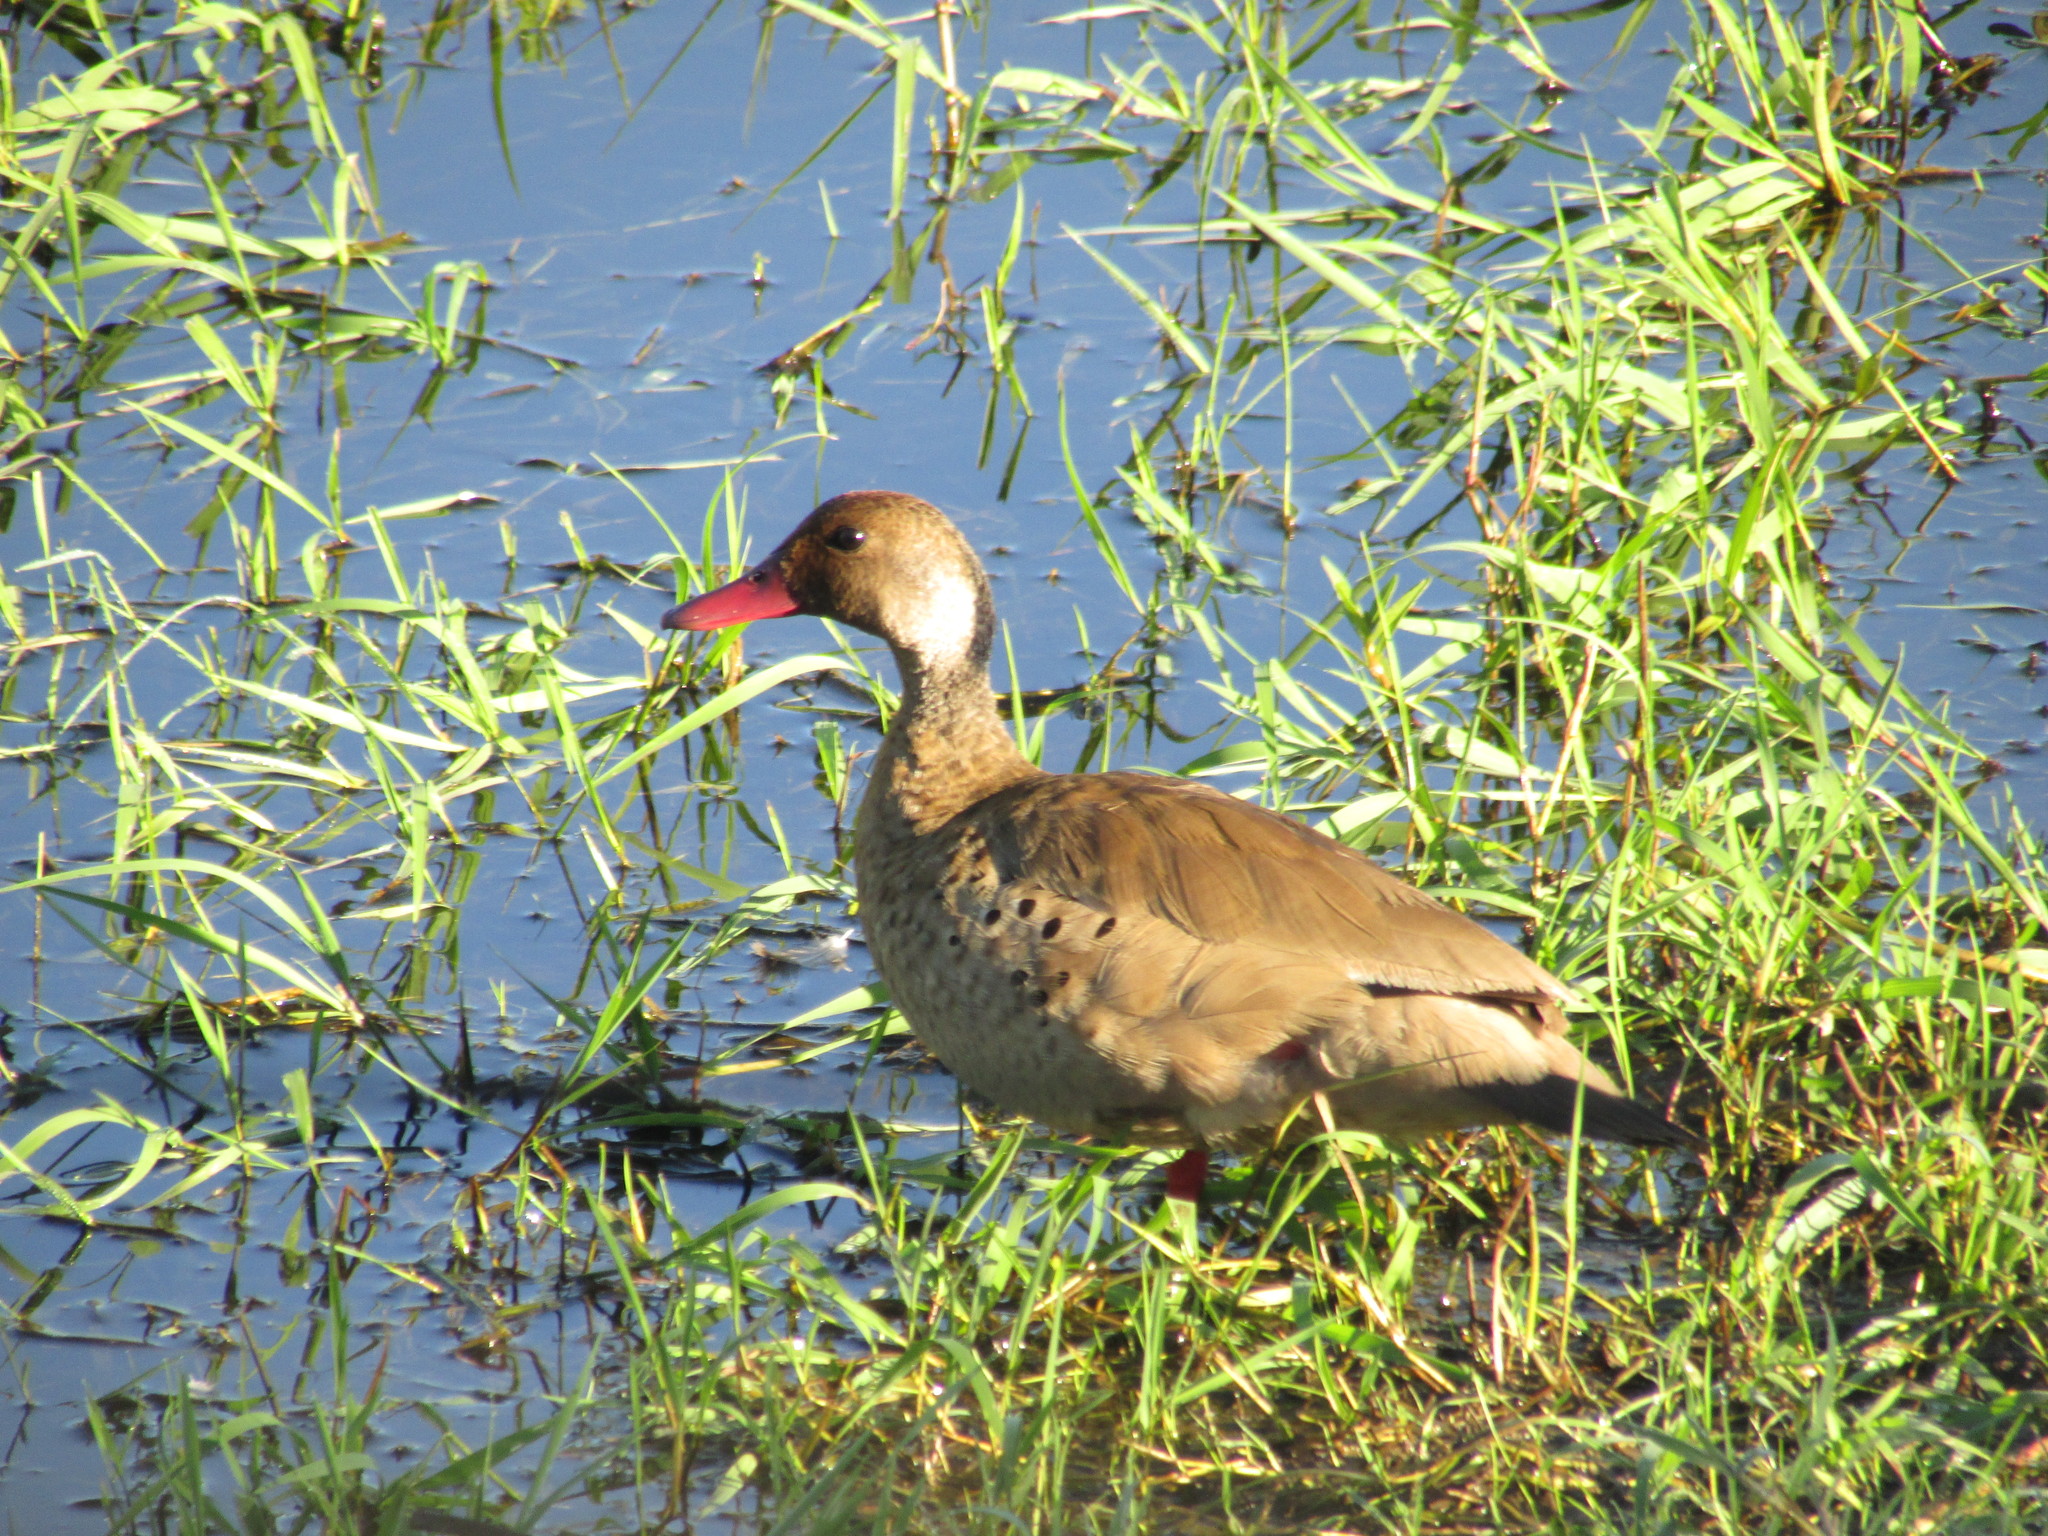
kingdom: Animalia
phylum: Chordata
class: Aves
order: Anseriformes
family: Anatidae
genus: Amazonetta
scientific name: Amazonetta brasiliensis
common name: Brazilian teal
